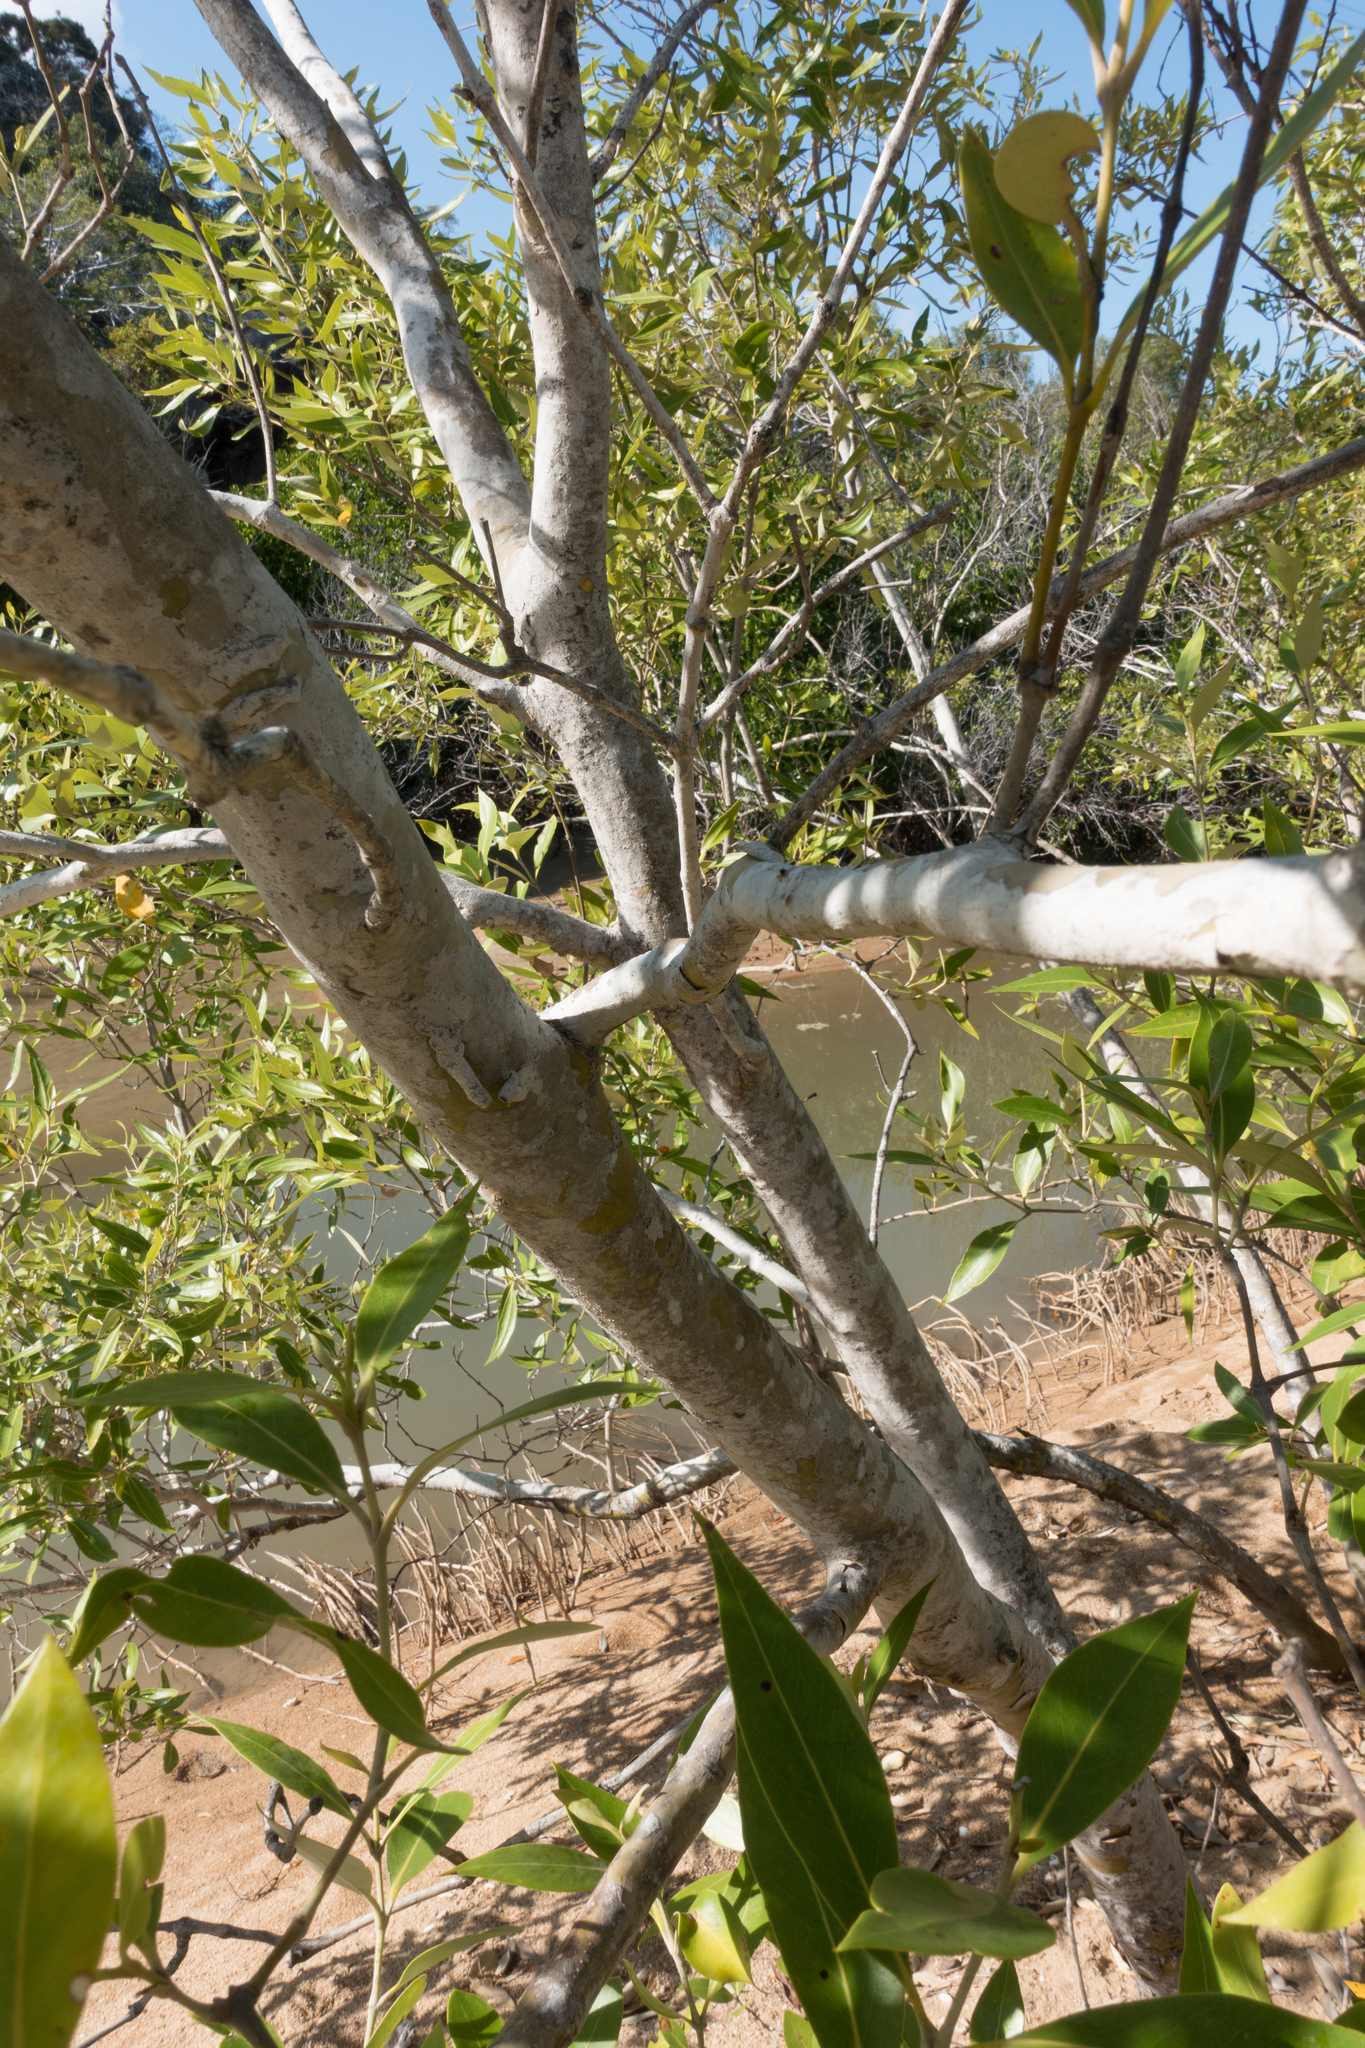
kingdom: Plantae
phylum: Tracheophyta
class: Magnoliopsida
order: Lamiales
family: Acanthaceae
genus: Avicennia
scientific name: Avicennia marina
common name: Gray mangrove
